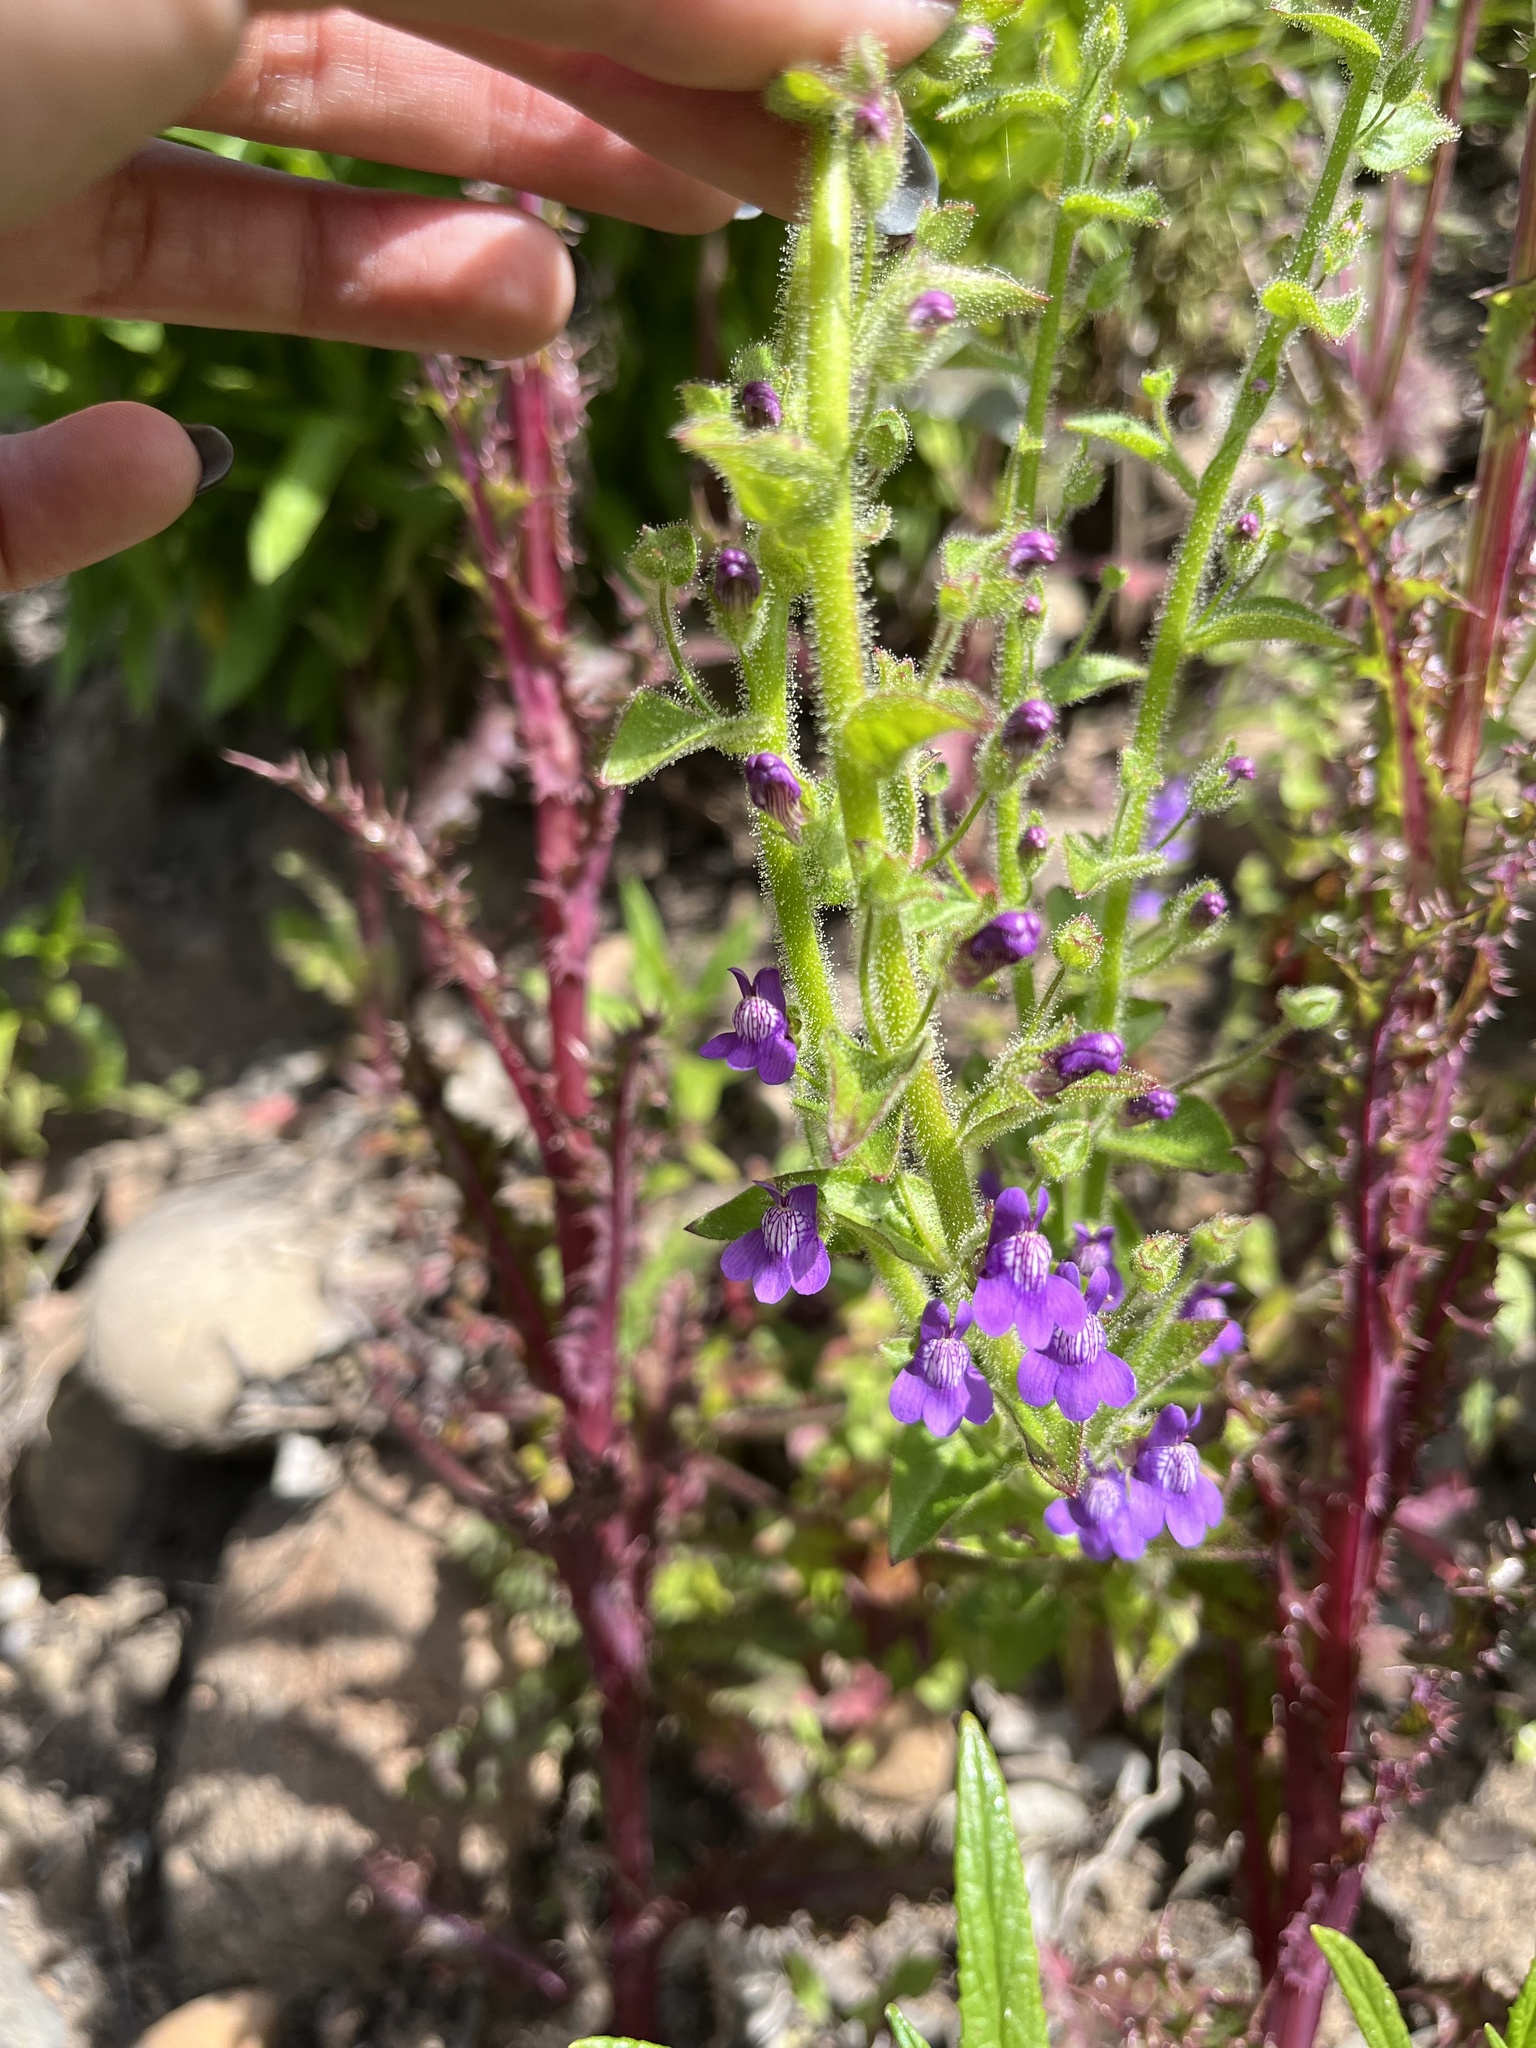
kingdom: Plantae
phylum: Tracheophyta
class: Magnoliopsida
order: Lamiales
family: Plantaginaceae
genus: Sairocarpus
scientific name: Sairocarpus nuttallianus
